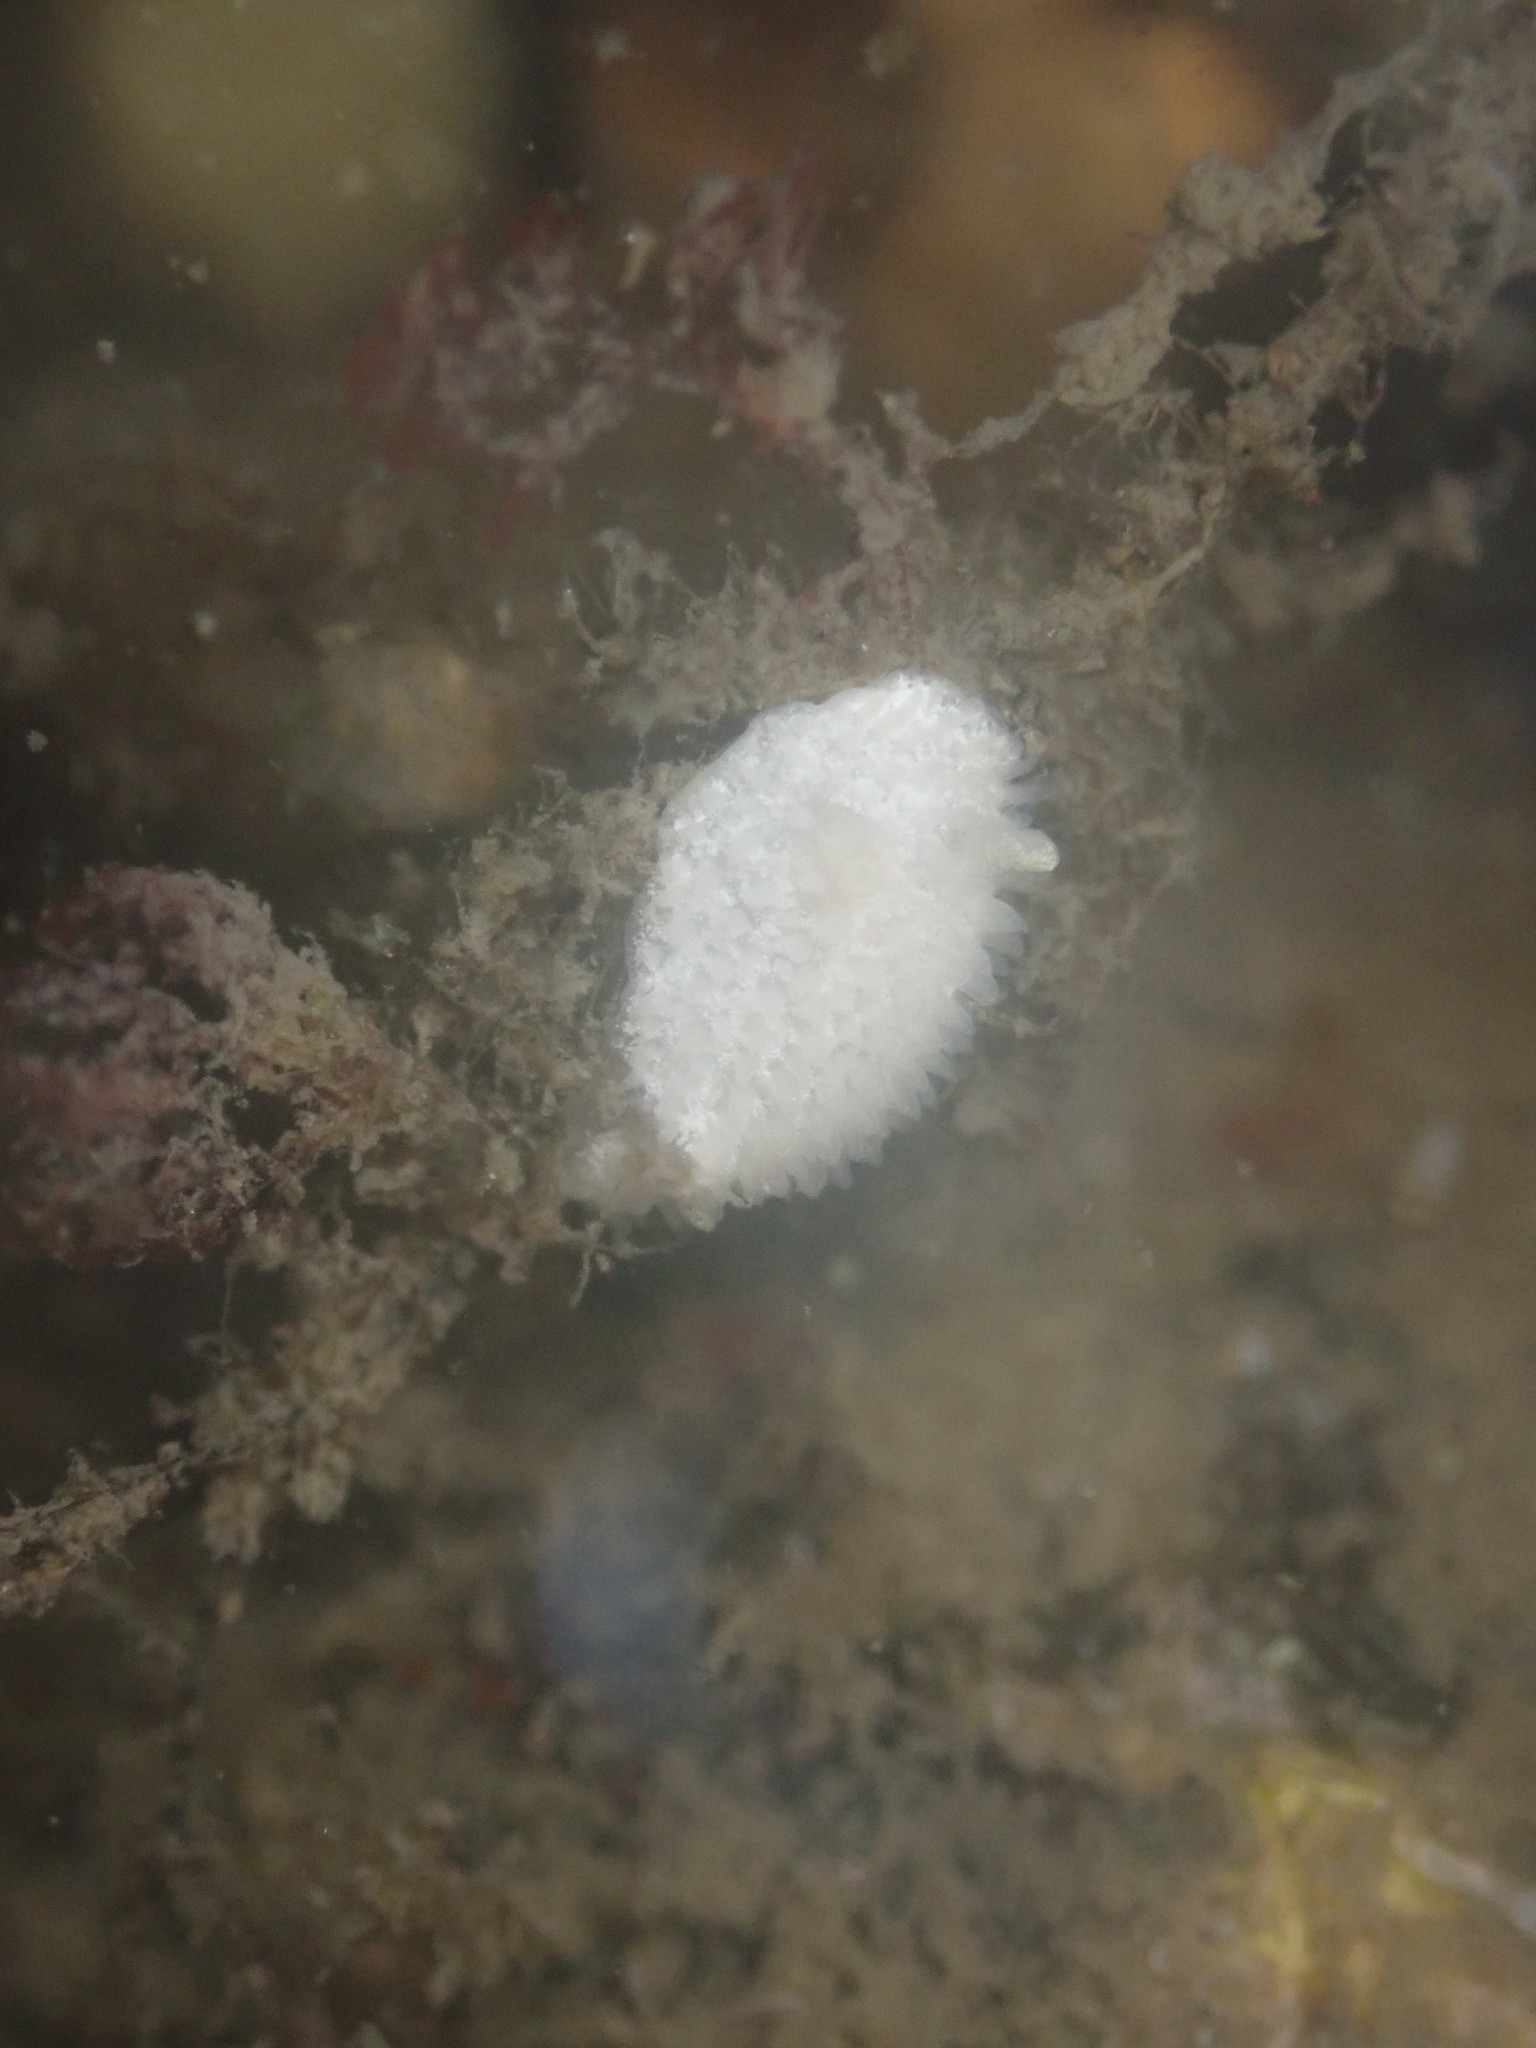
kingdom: Animalia
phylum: Mollusca
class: Gastropoda
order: Nudibranchia
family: Calycidorididae
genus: Diaphorodoris
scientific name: Diaphorodoris lirulatocauda
